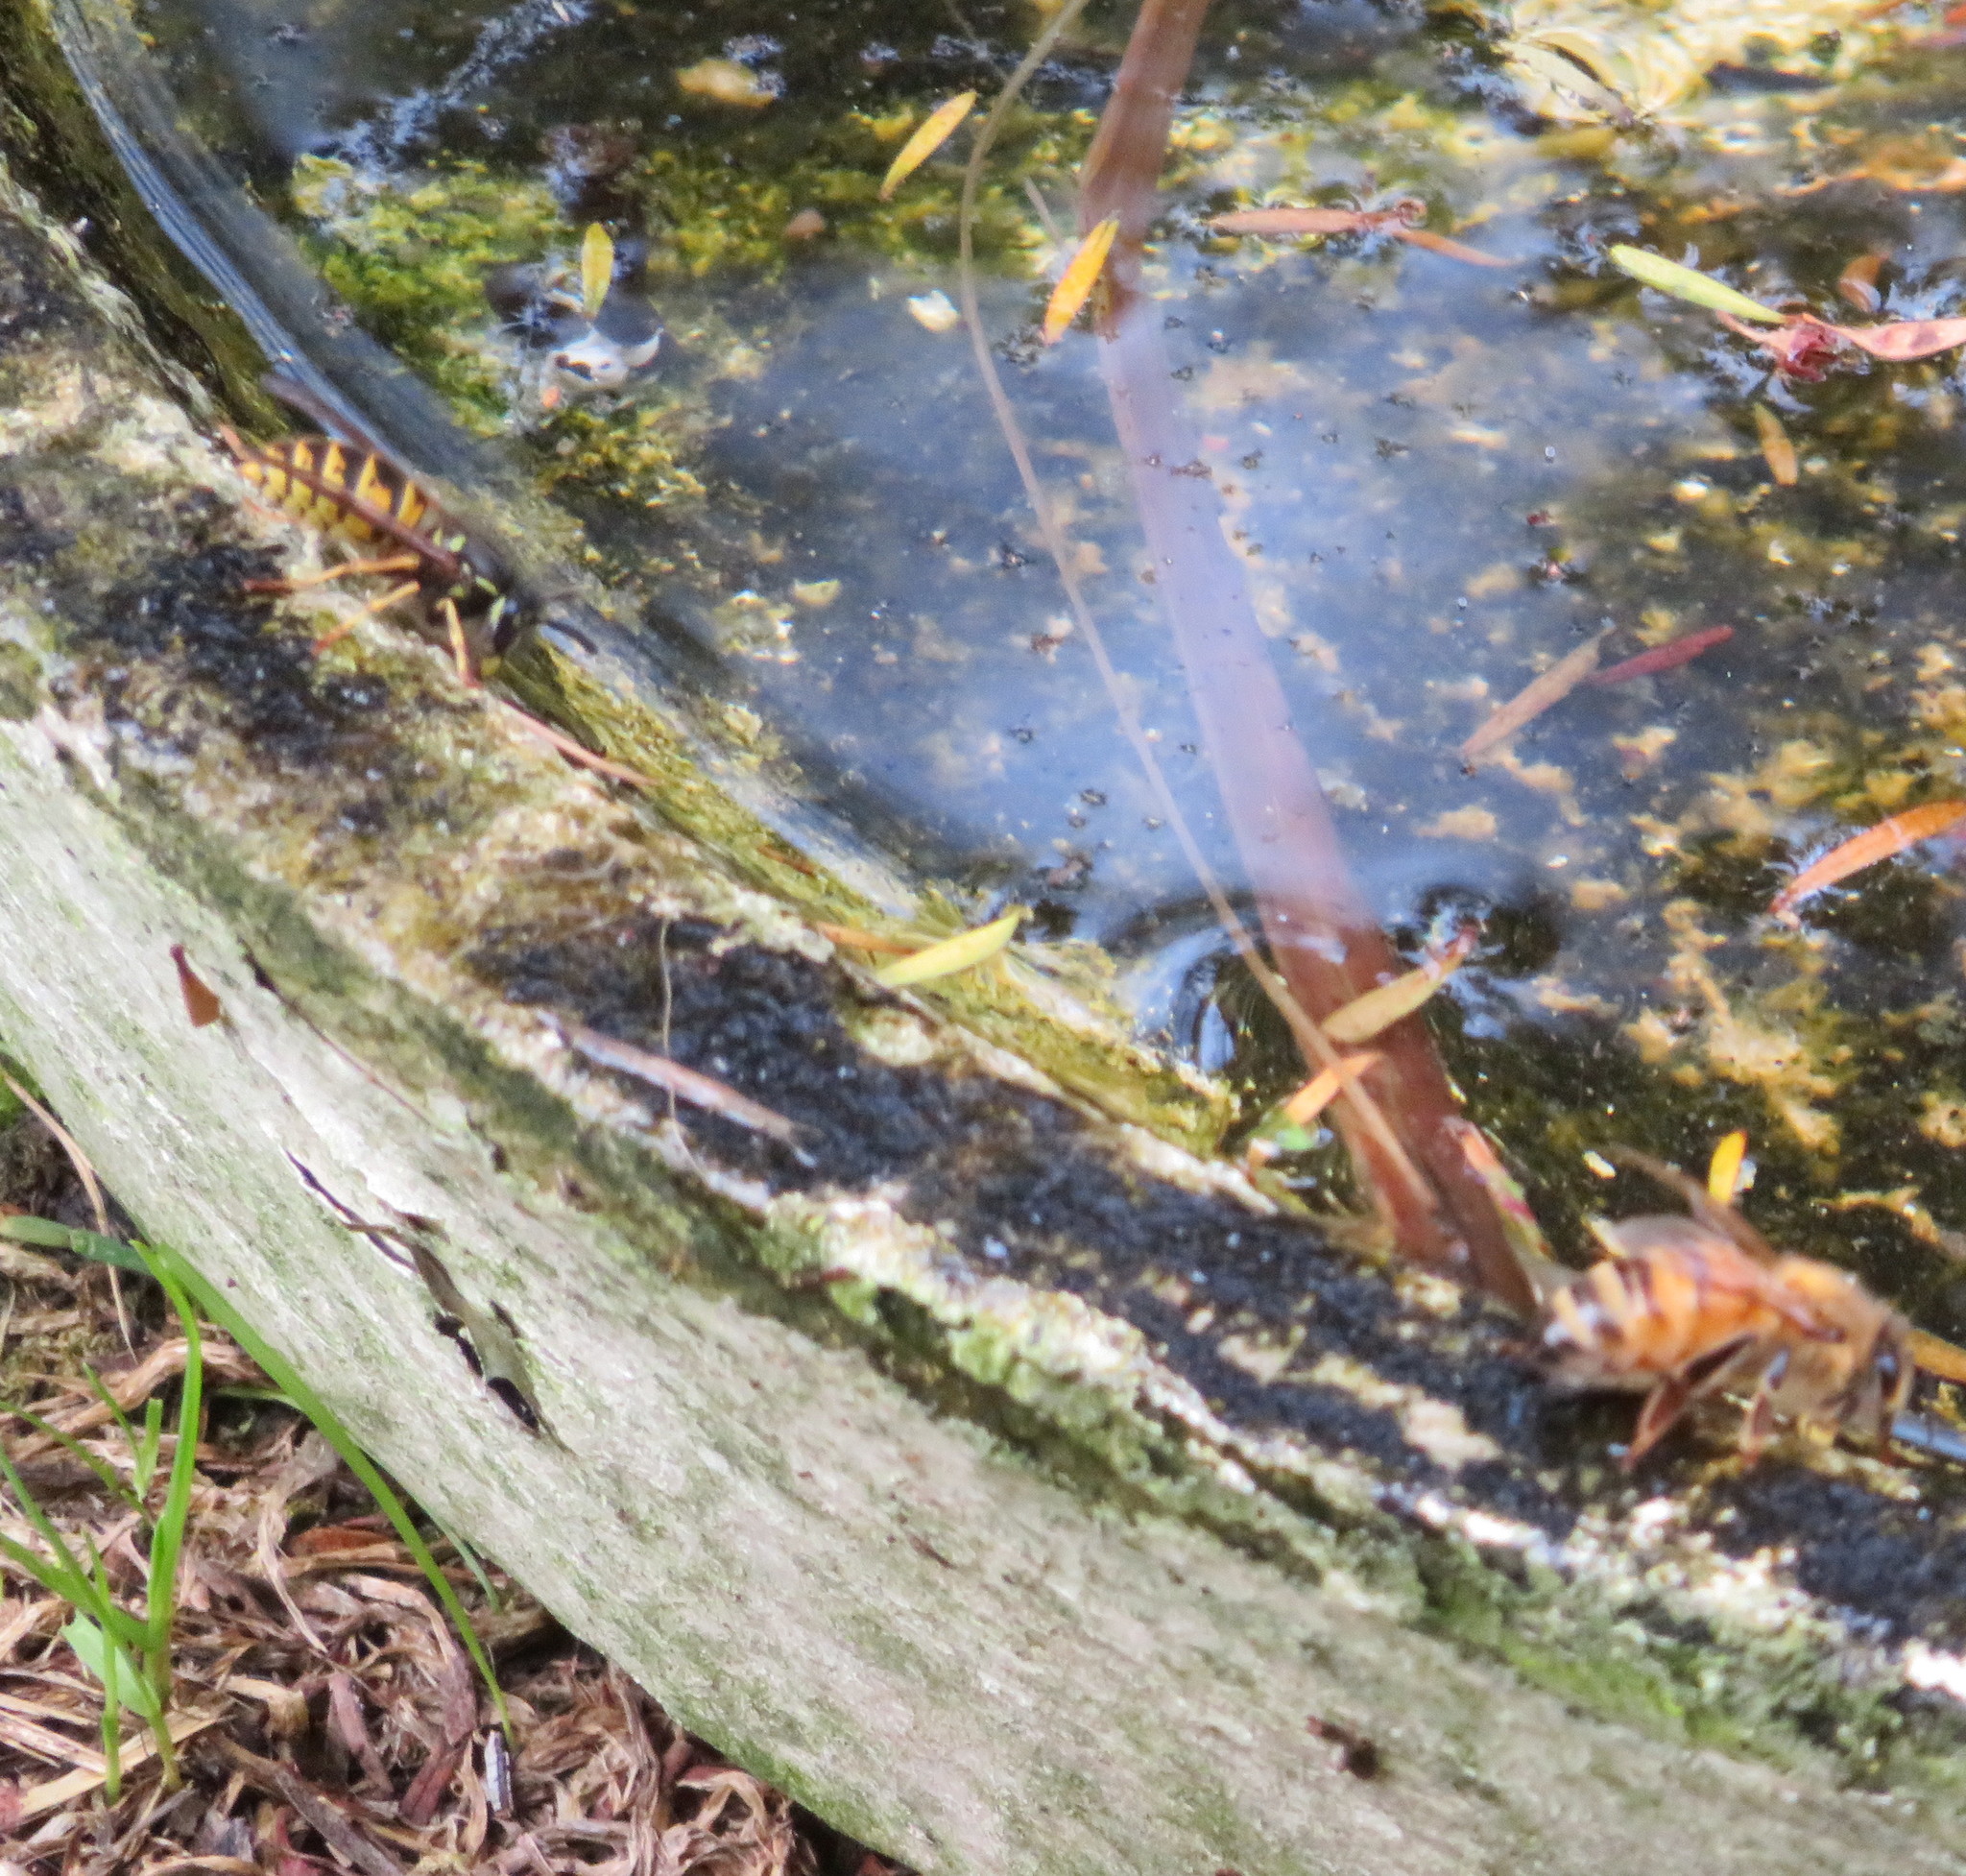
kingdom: Animalia
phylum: Arthropoda
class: Insecta
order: Hymenoptera
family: Vespidae
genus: Vespula
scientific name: Vespula vulgaris
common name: Common wasp
